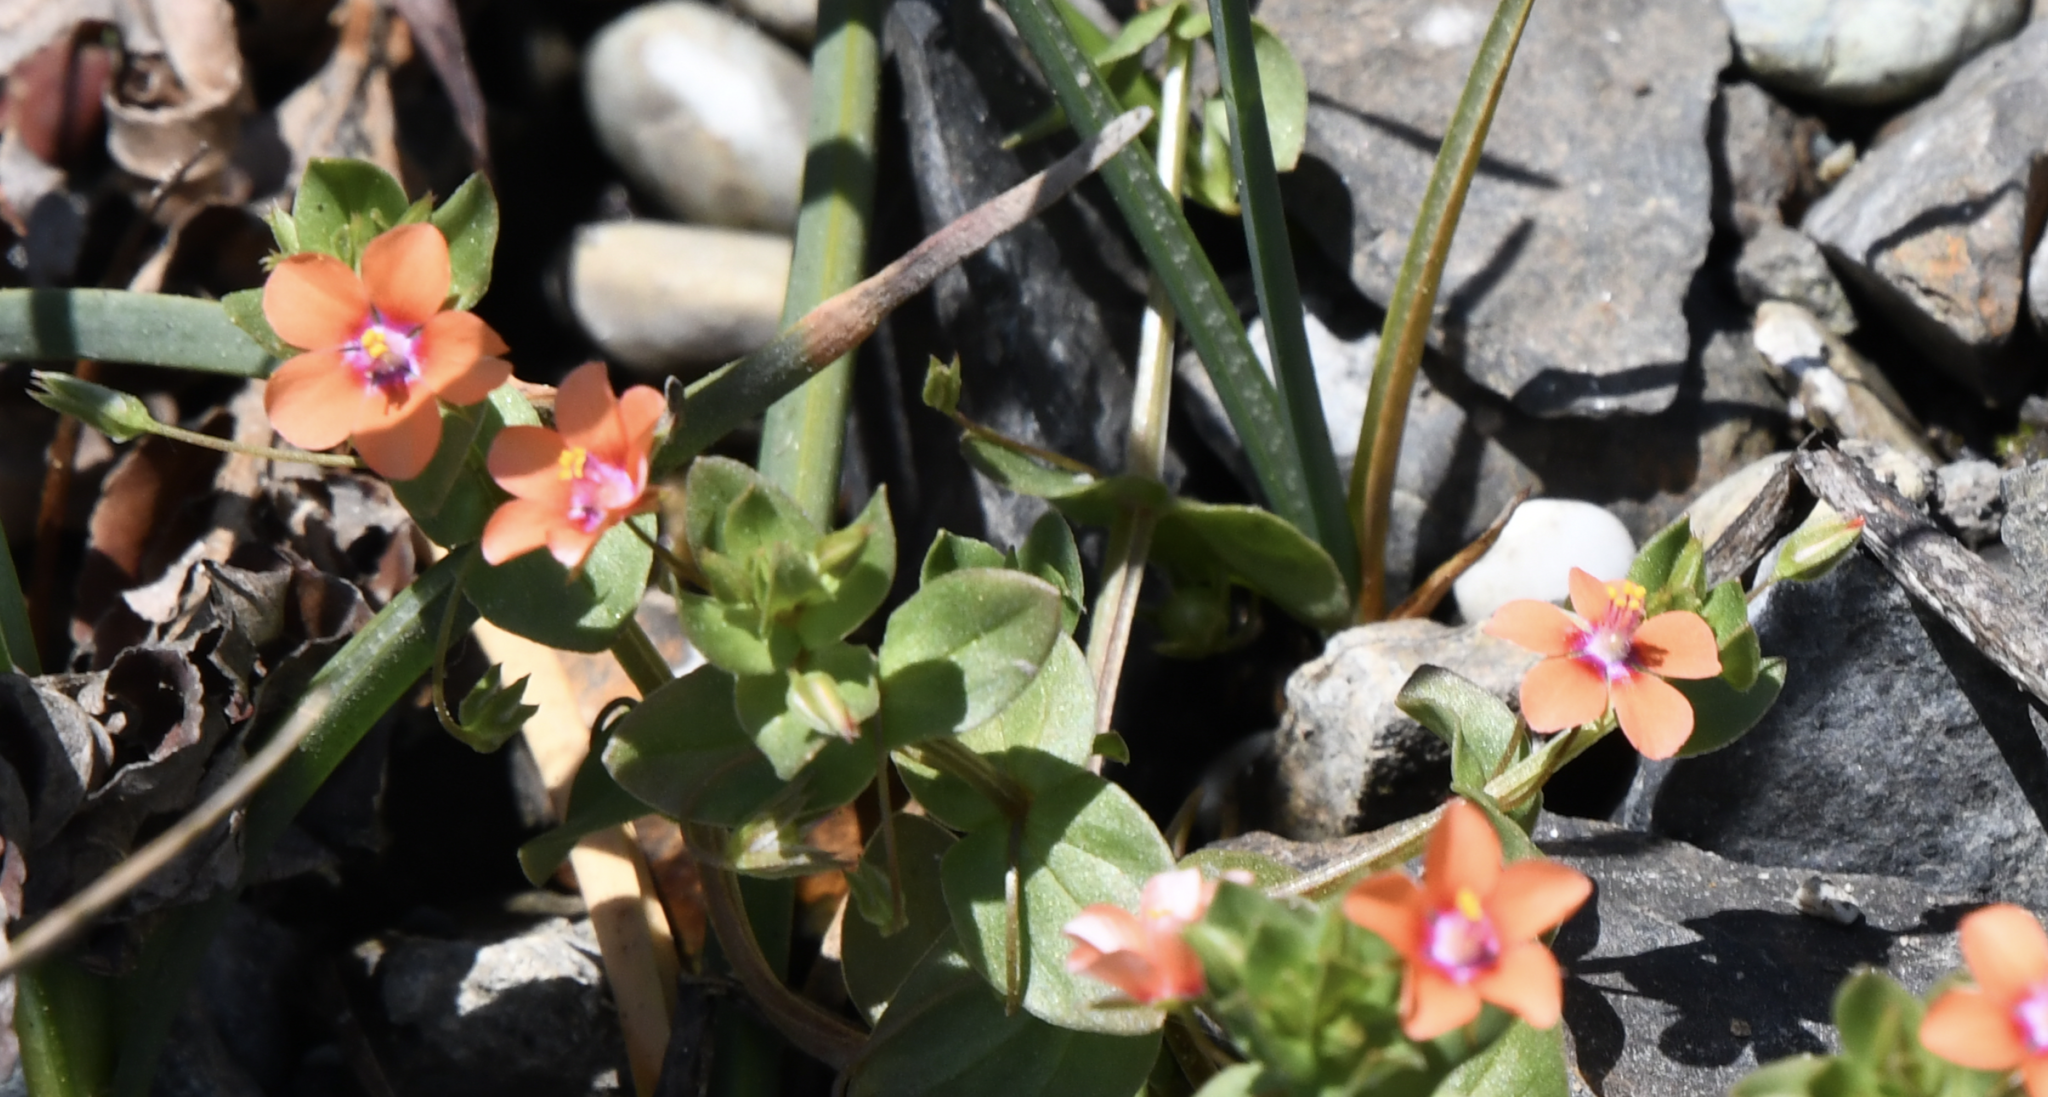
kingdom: Plantae
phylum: Tracheophyta
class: Magnoliopsida
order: Ericales
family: Primulaceae
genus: Lysimachia
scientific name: Lysimachia arvensis
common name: Scarlet pimpernel
